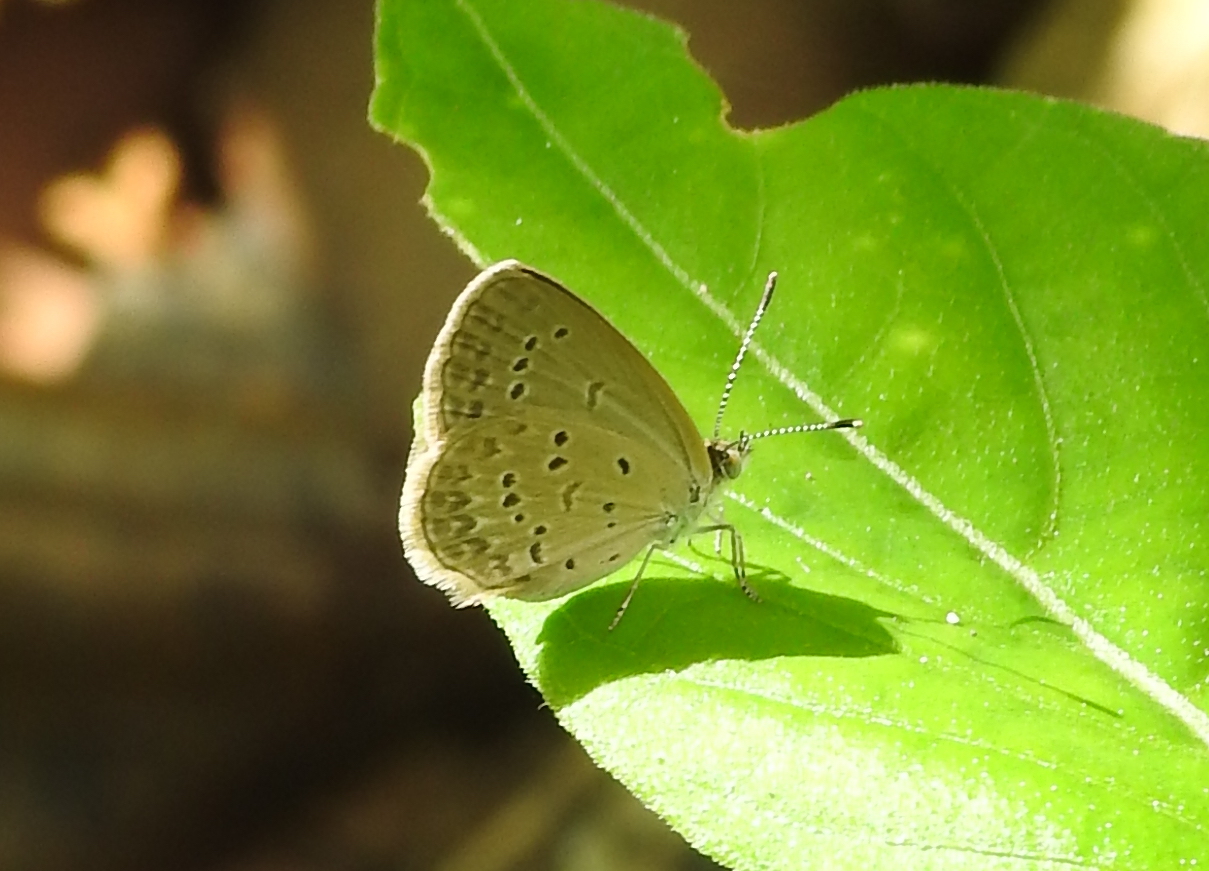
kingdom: Animalia
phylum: Arthropoda
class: Insecta
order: Lepidoptera
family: Lycaenidae
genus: Zizina
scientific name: Zizina otis
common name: Lesser grass blue
